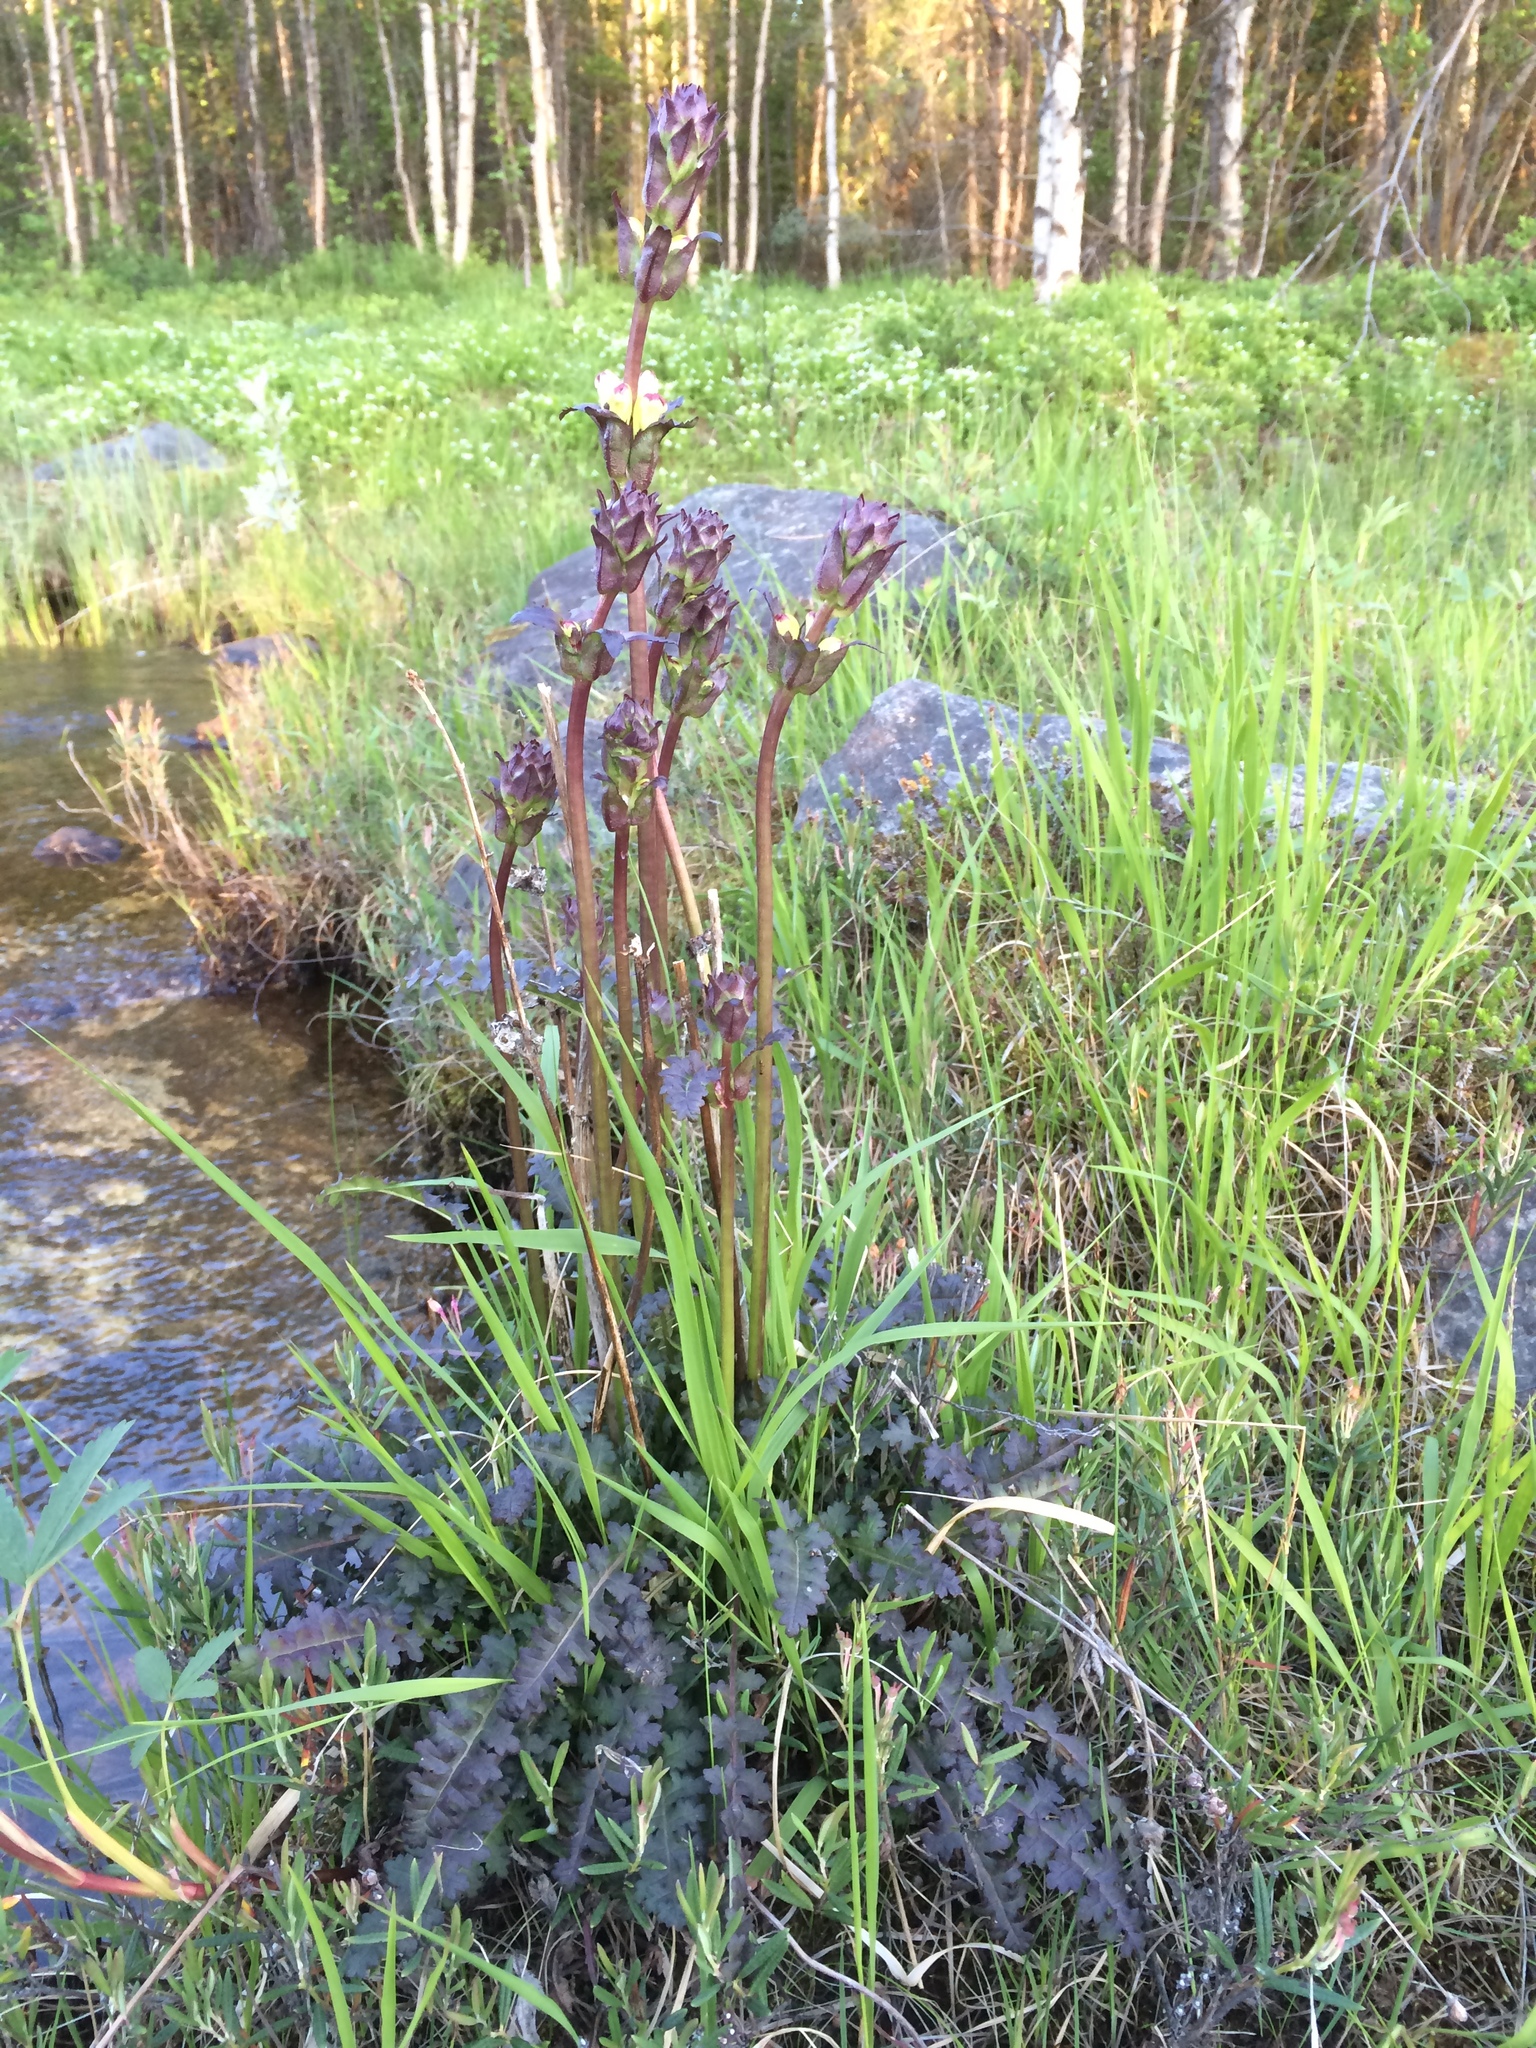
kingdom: Plantae
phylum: Tracheophyta
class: Magnoliopsida
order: Lamiales
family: Orobanchaceae
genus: Pedicularis
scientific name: Pedicularis sceptrum-carolinum
